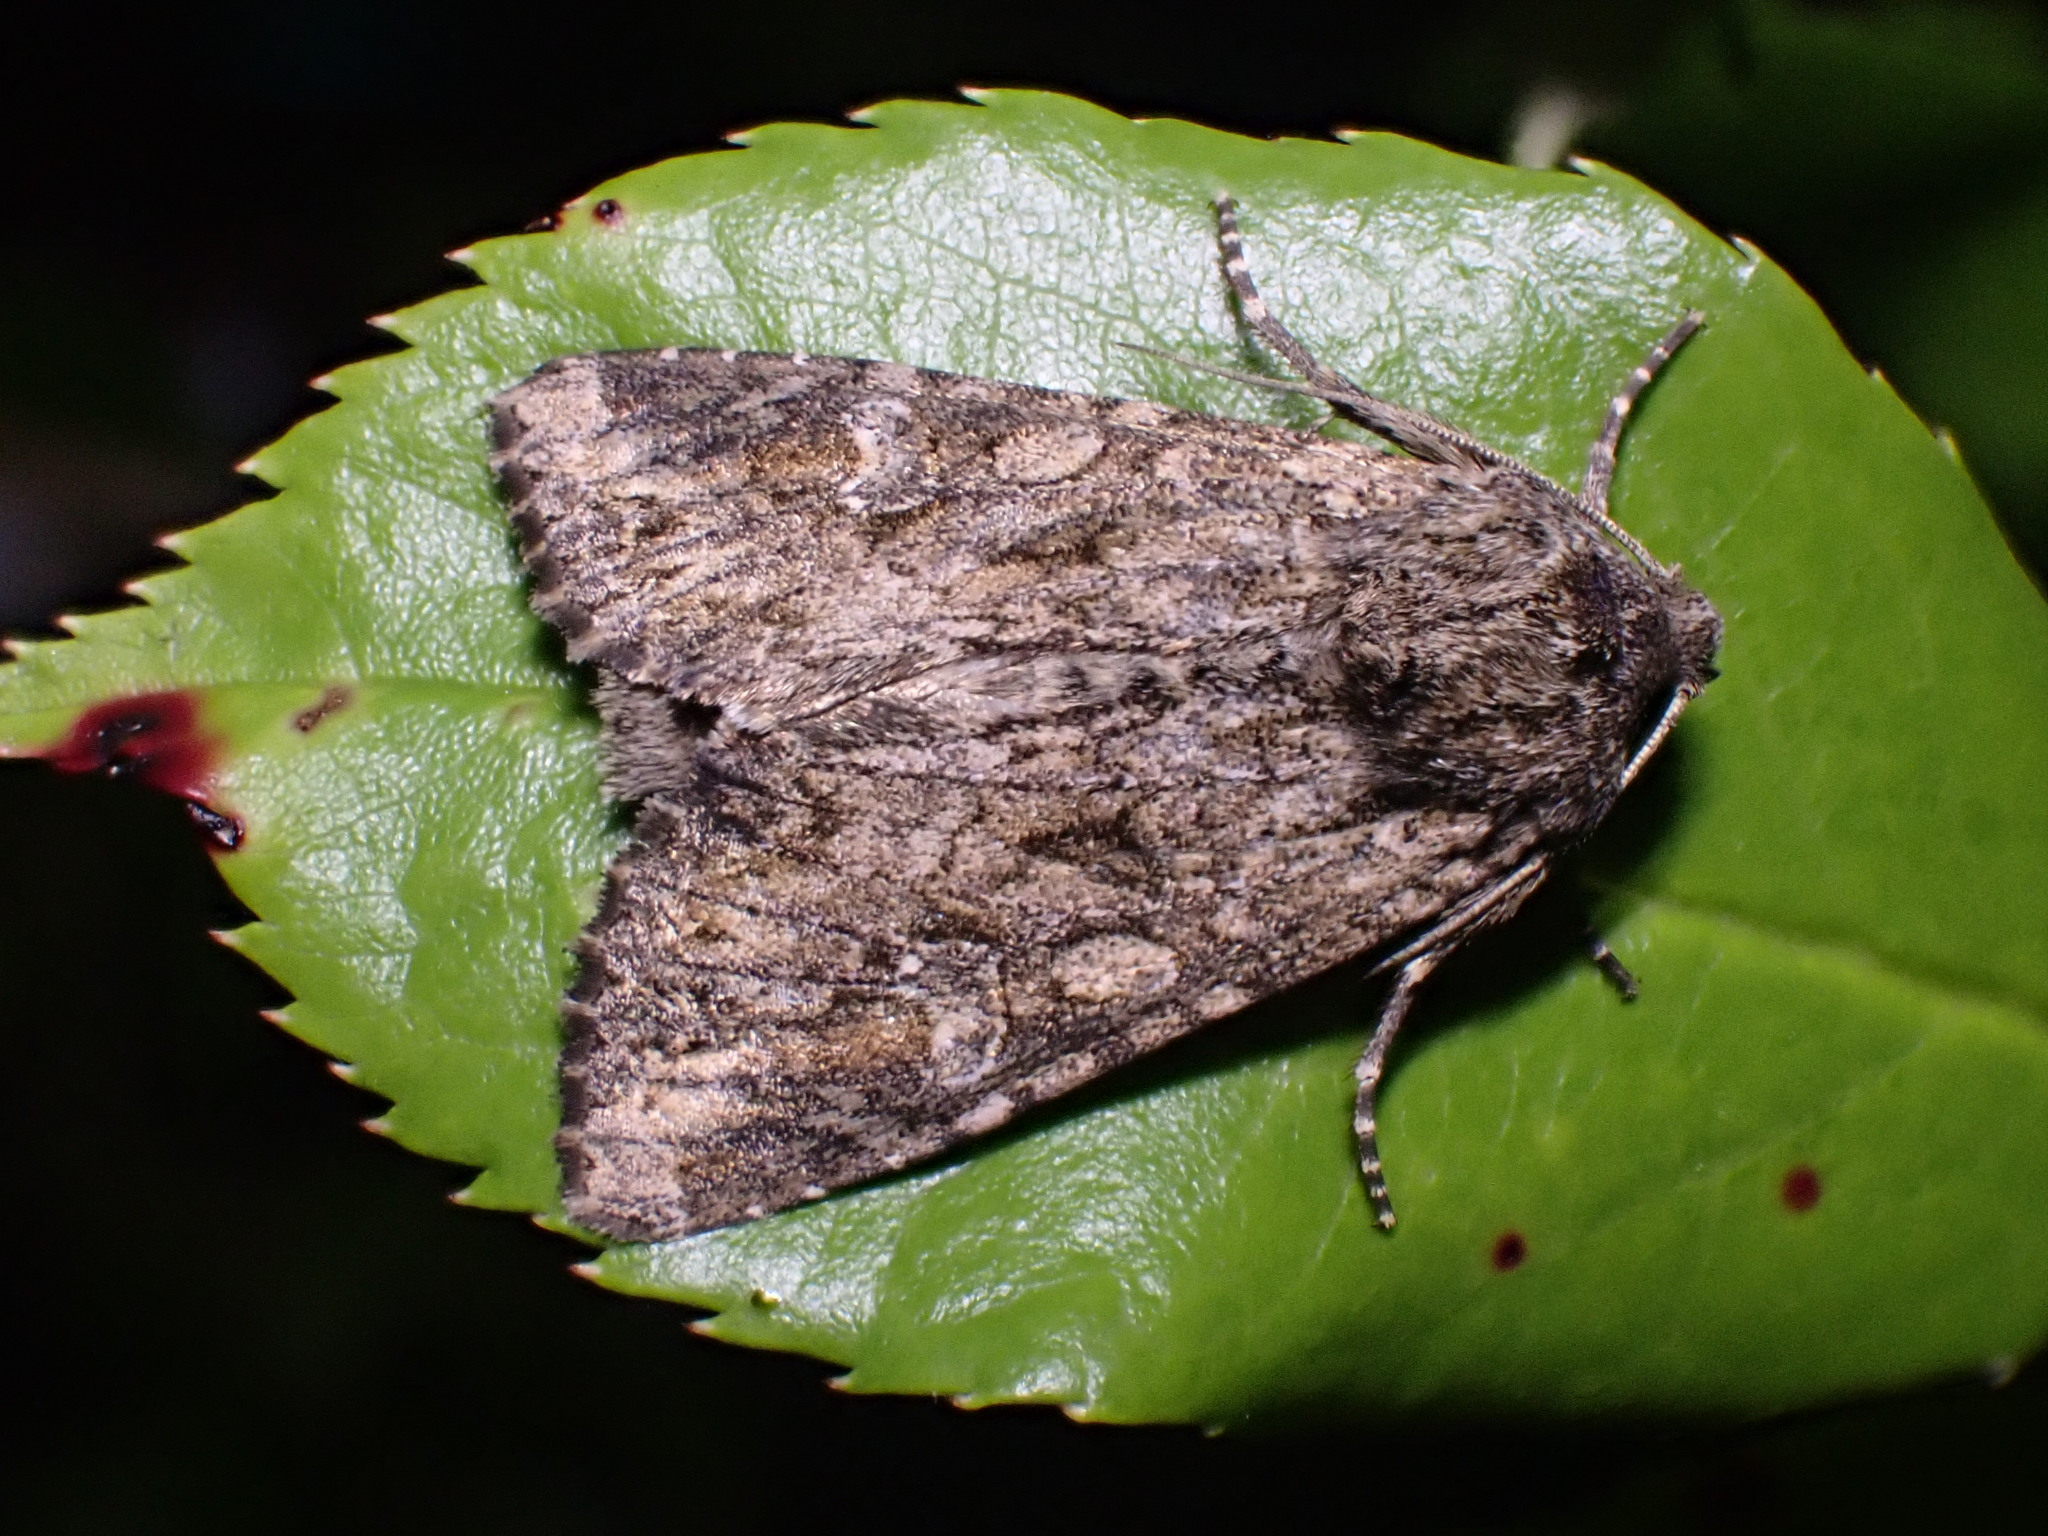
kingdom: Animalia
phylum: Arthropoda
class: Insecta
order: Lepidoptera
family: Noctuidae
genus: Apamea
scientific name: Apamea anceps
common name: Large nutmeg
